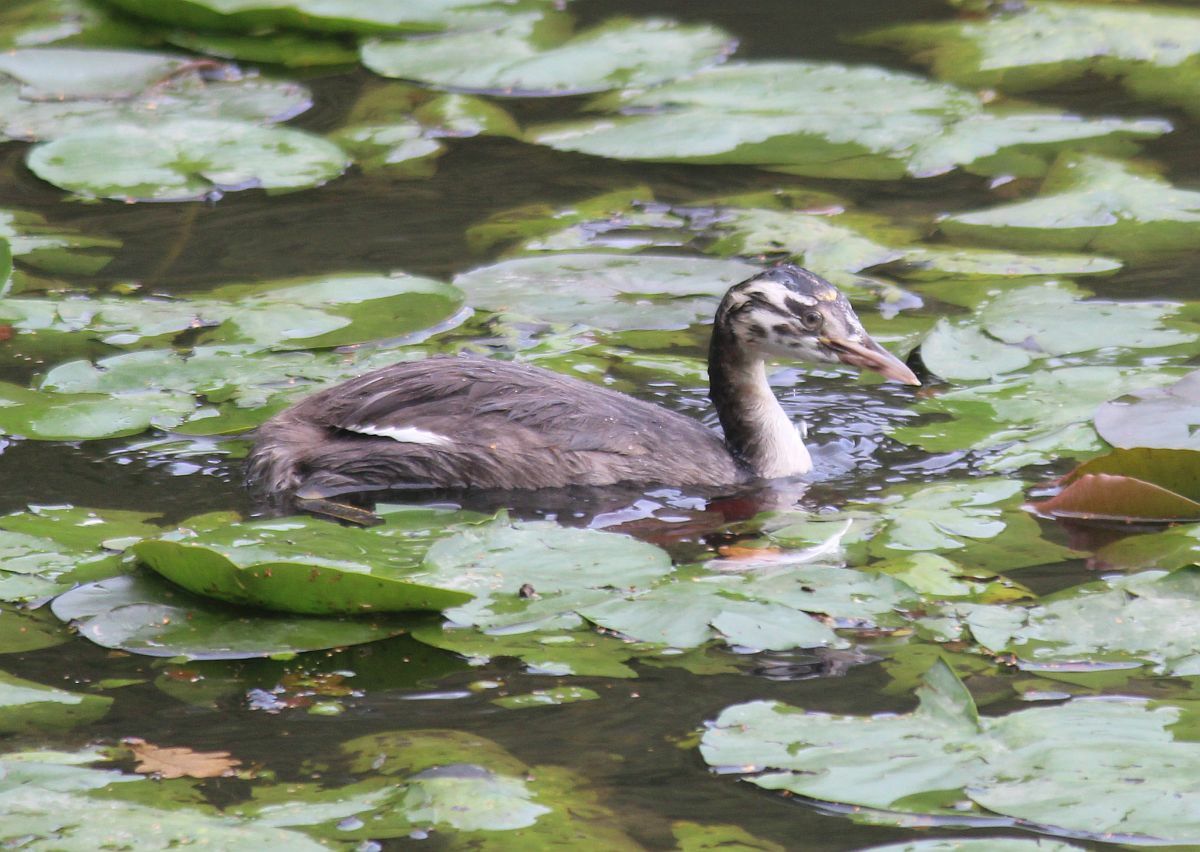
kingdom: Animalia
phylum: Chordata
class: Aves
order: Podicipediformes
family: Podicipedidae
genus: Podiceps
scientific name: Podiceps cristatus
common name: Great crested grebe
